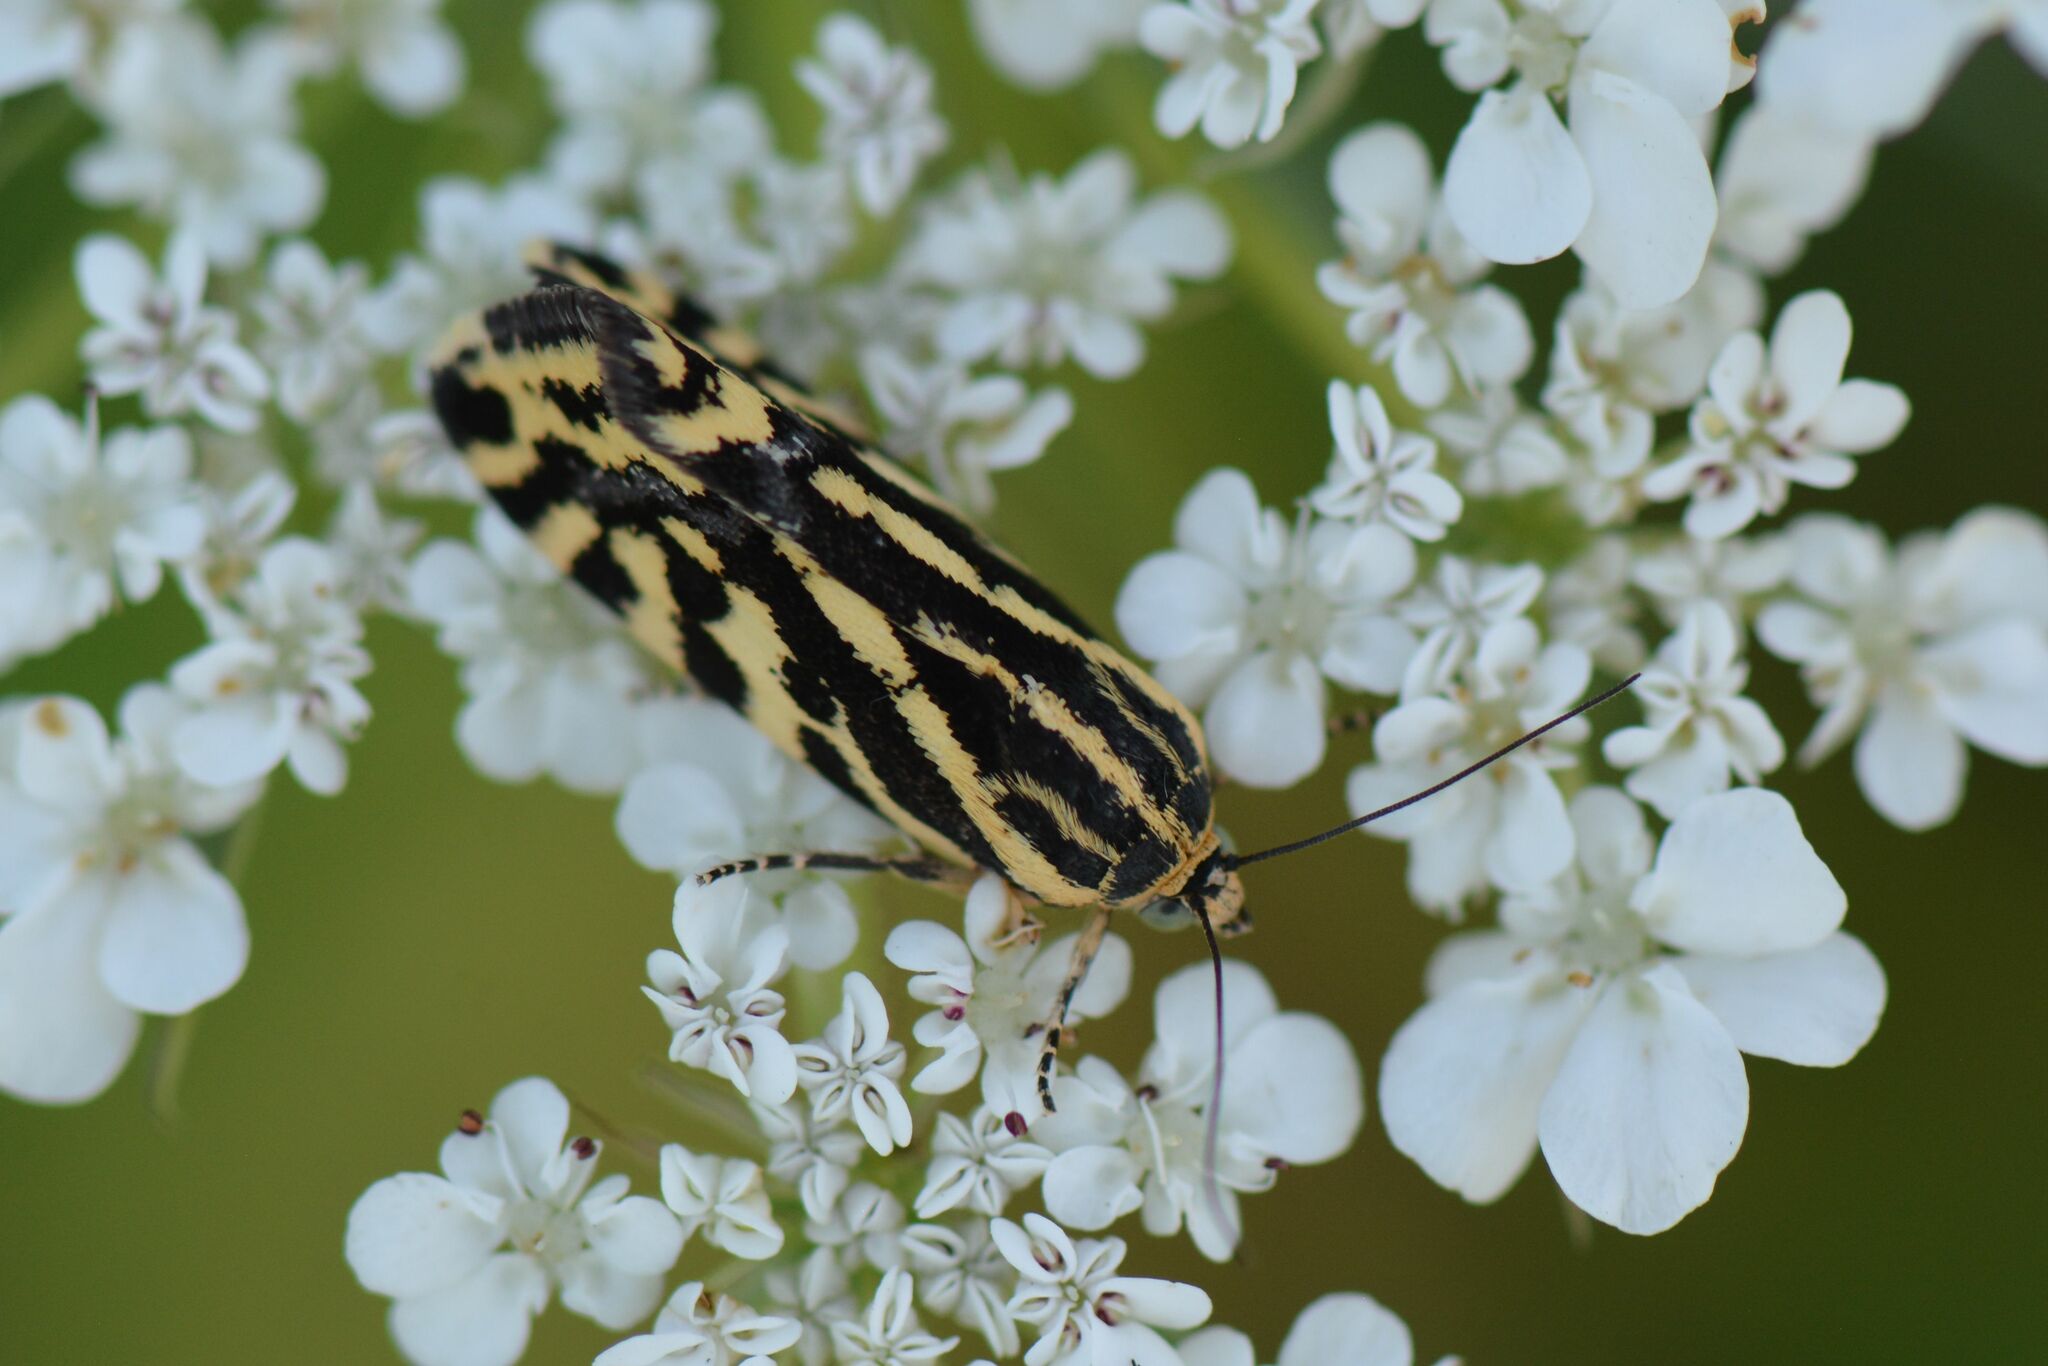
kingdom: Animalia
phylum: Arthropoda
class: Insecta
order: Lepidoptera
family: Noctuidae
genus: Acontia
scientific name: Acontia trabealis
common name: Spotted sulphur
